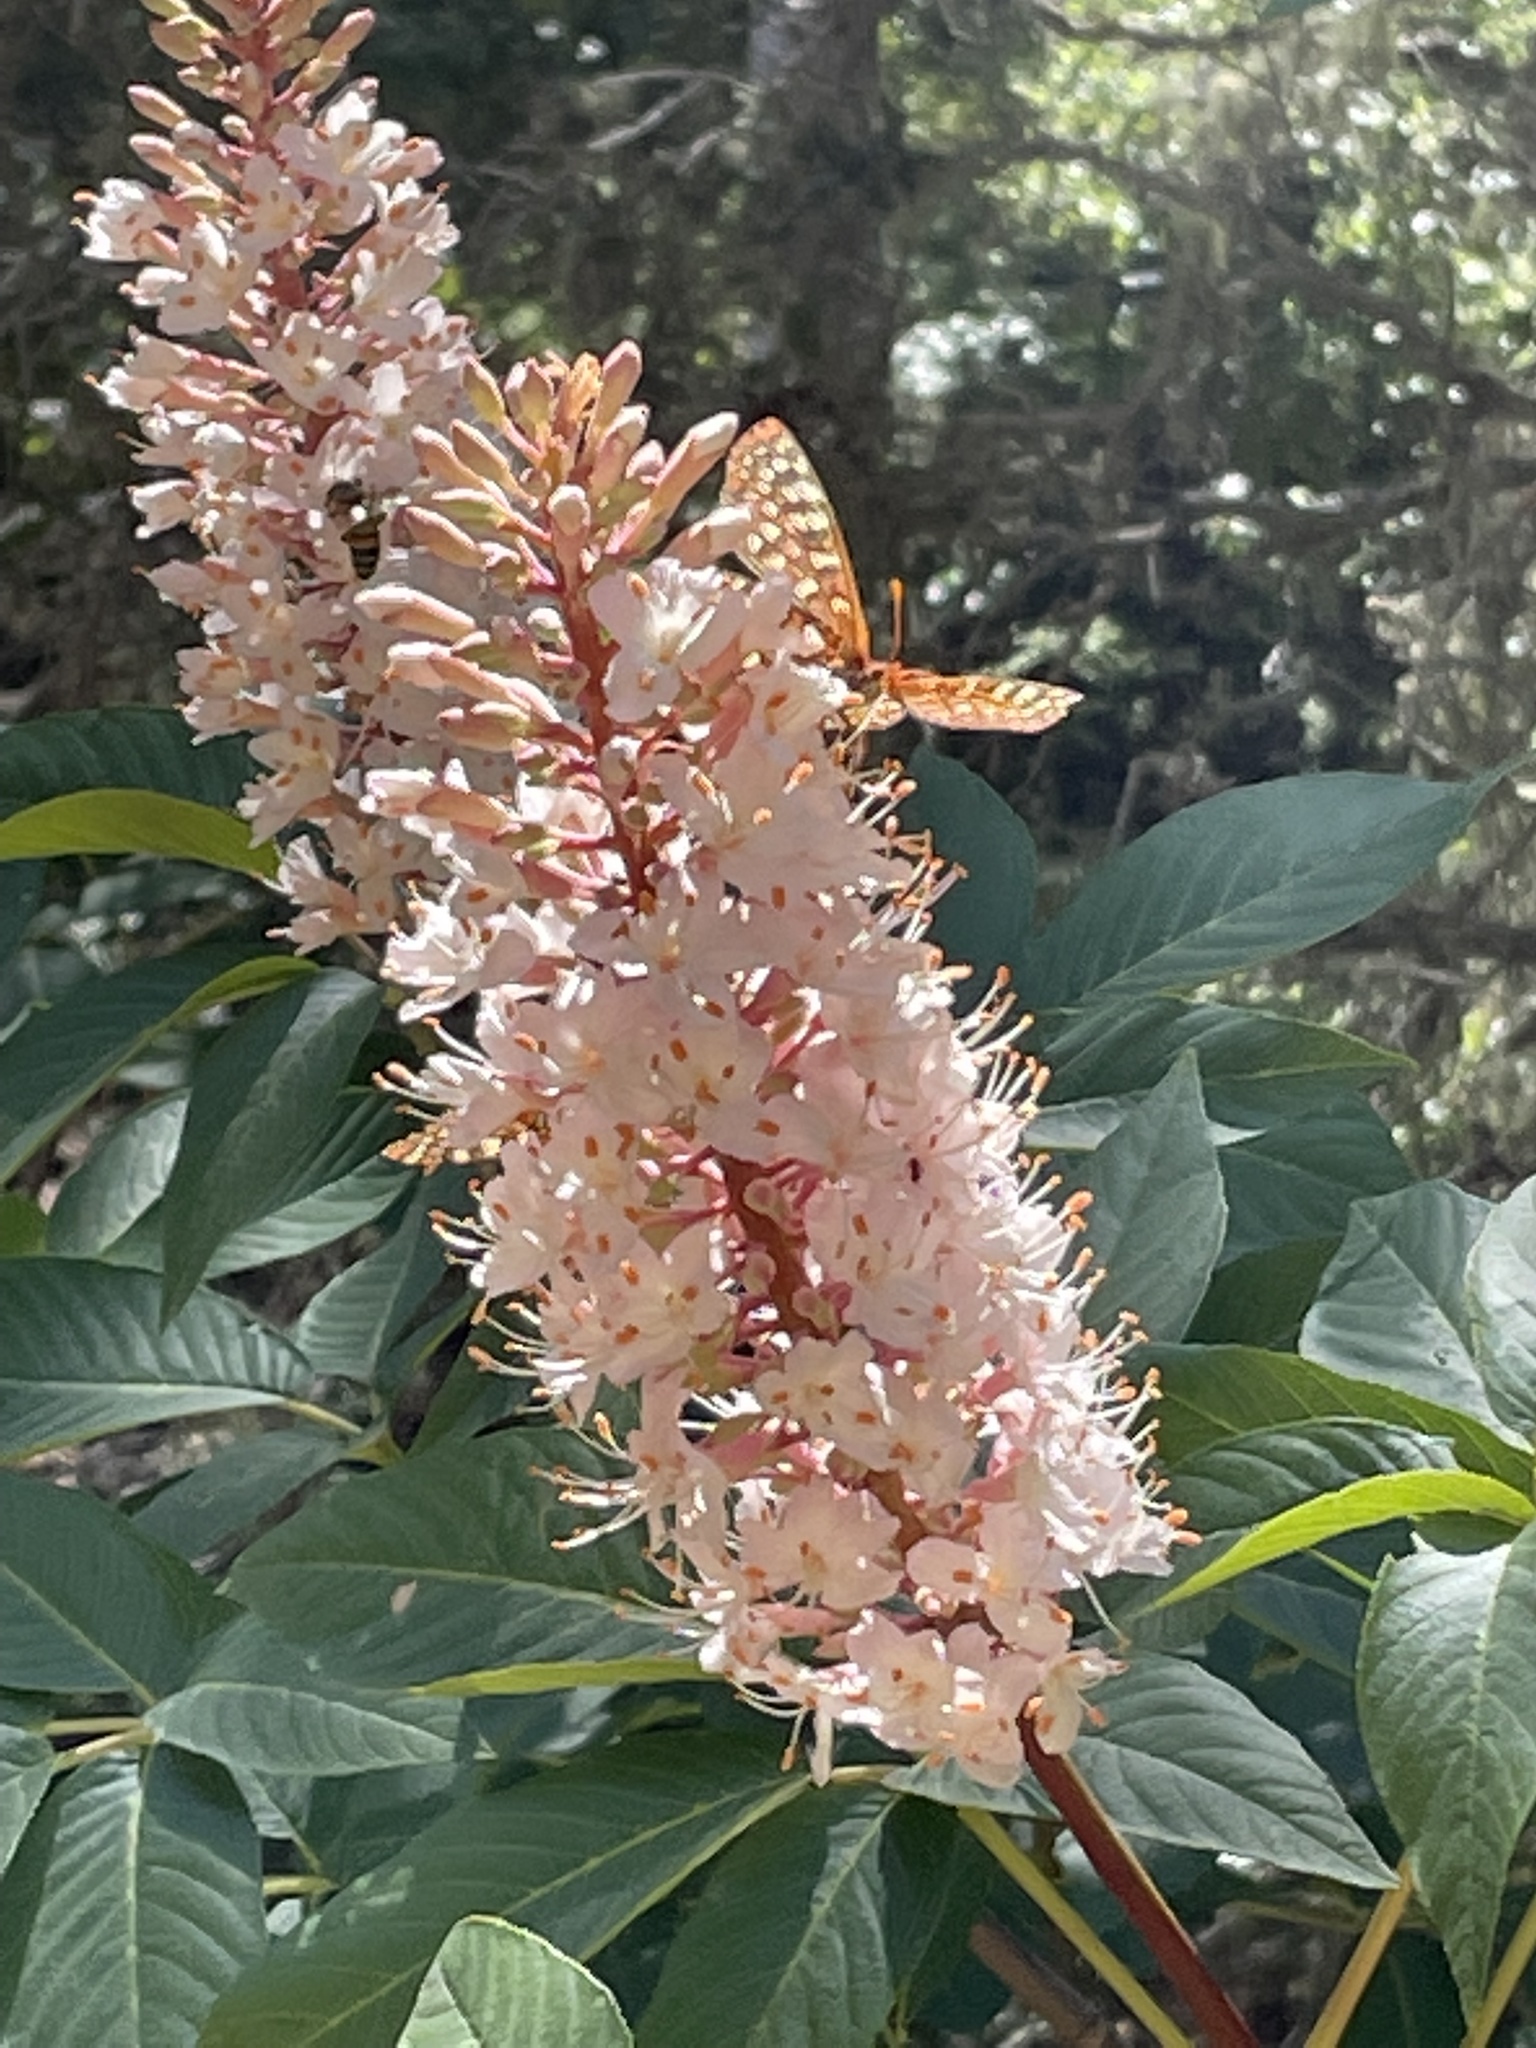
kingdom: Animalia
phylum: Arthropoda
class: Insecta
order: Lepidoptera
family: Nymphalidae
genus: Occidryas
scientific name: Occidryas chalcedona
